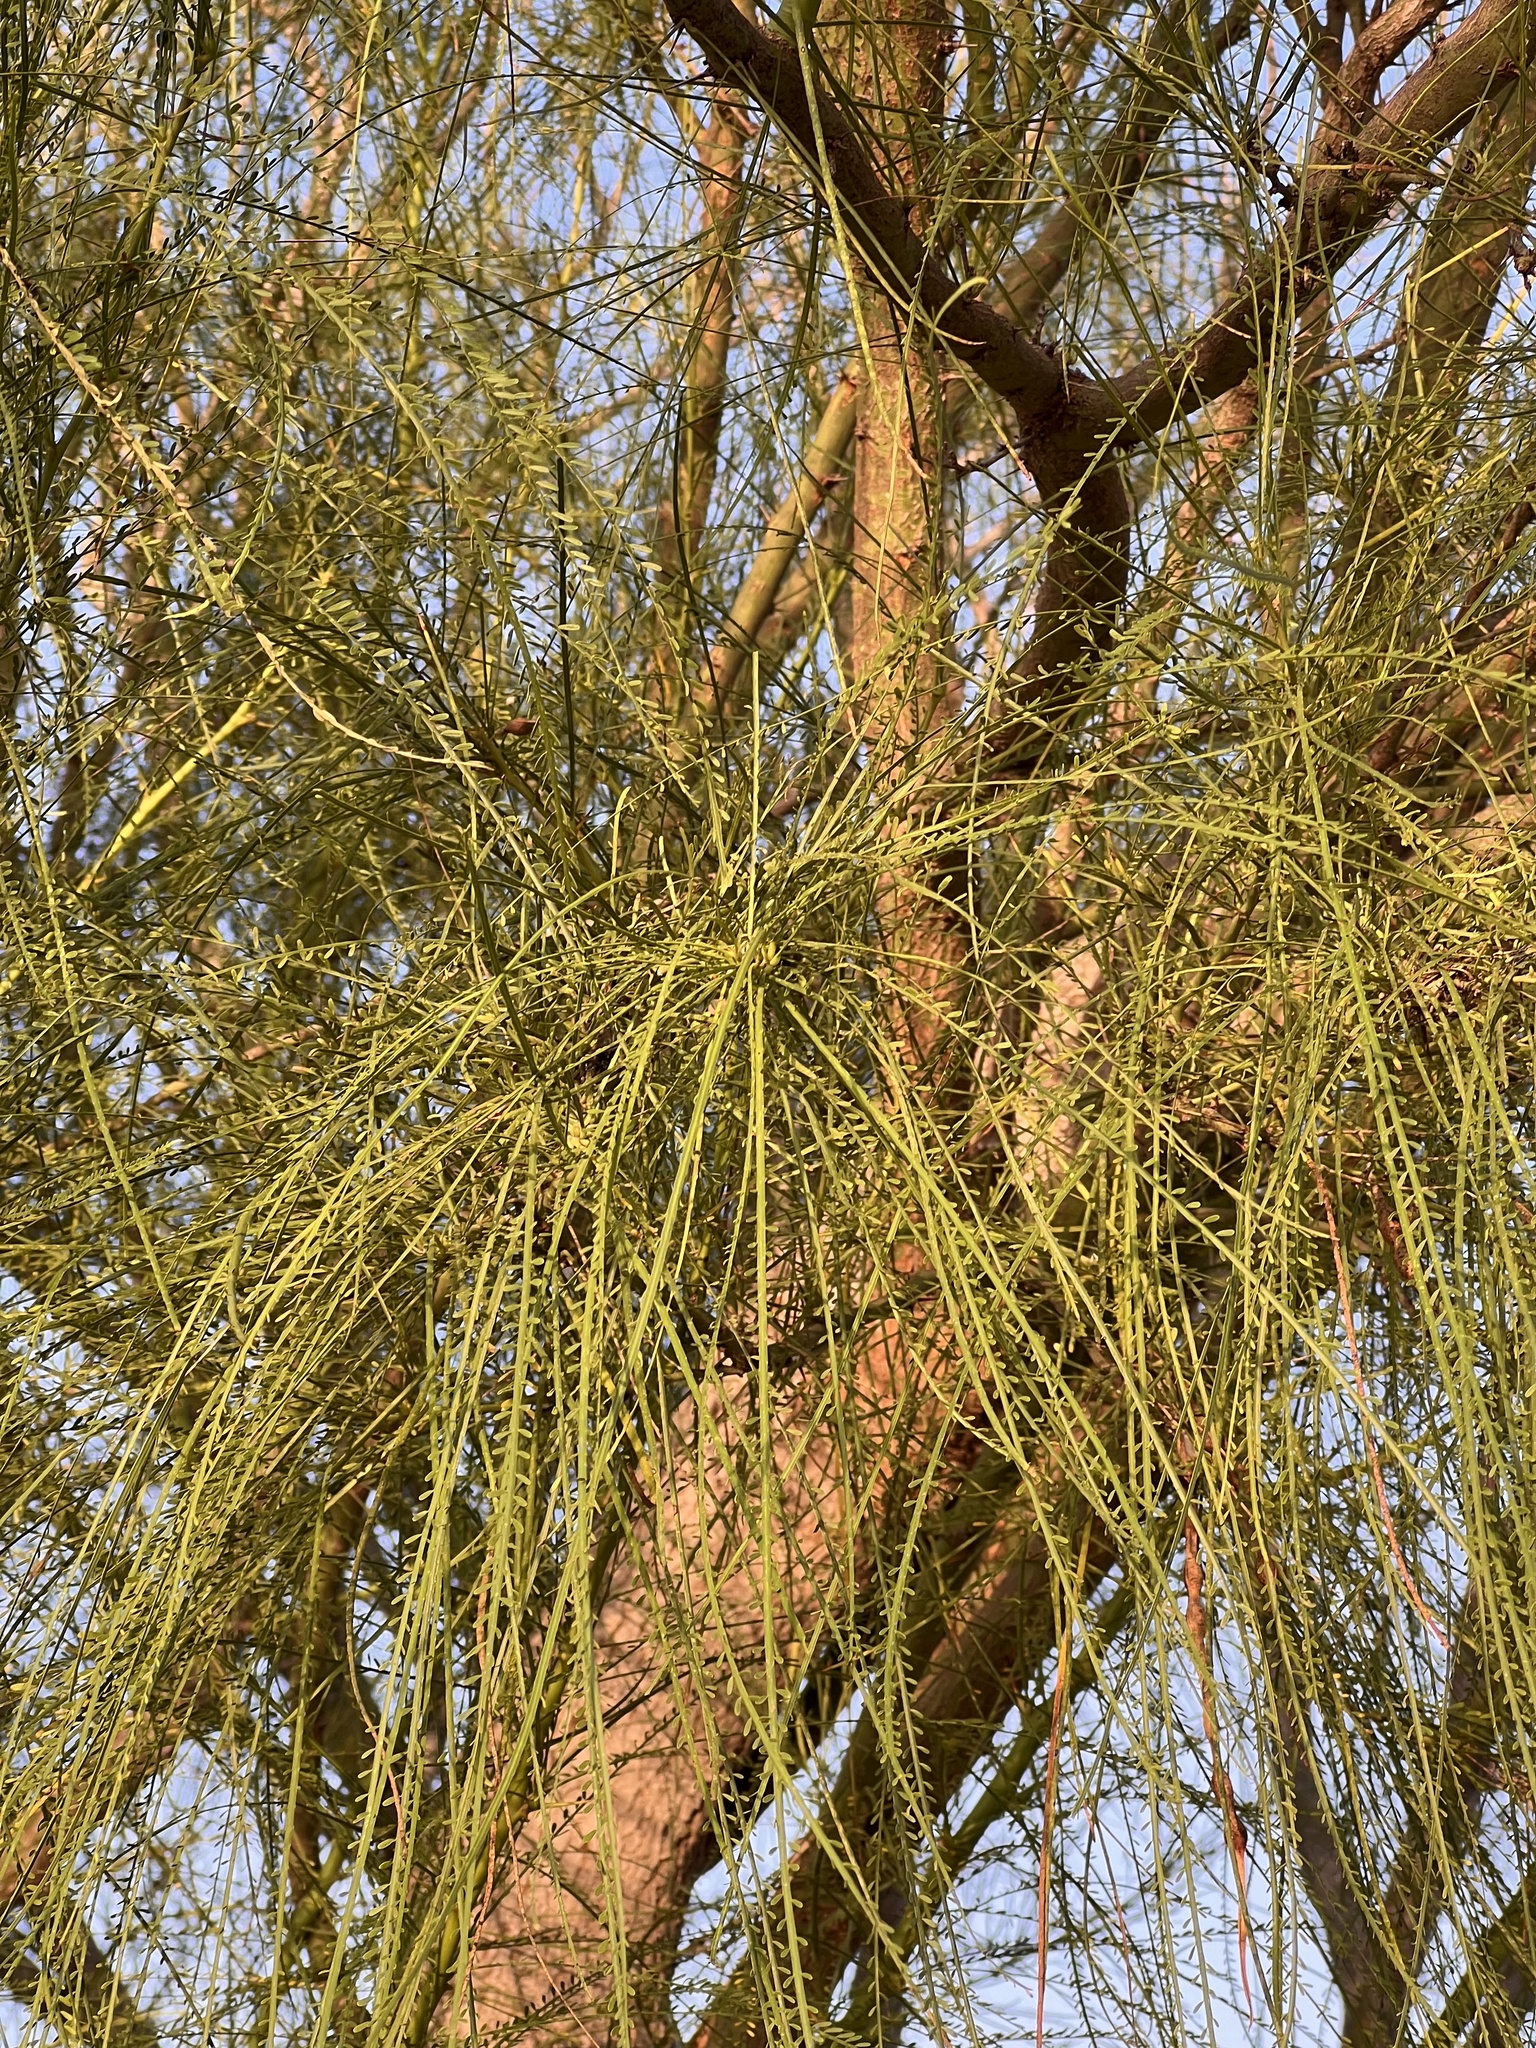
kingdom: Plantae
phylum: Tracheophyta
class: Magnoliopsida
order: Fabales
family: Fabaceae
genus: Parkinsonia
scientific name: Parkinsonia aculeata
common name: Jerusalem thorn
